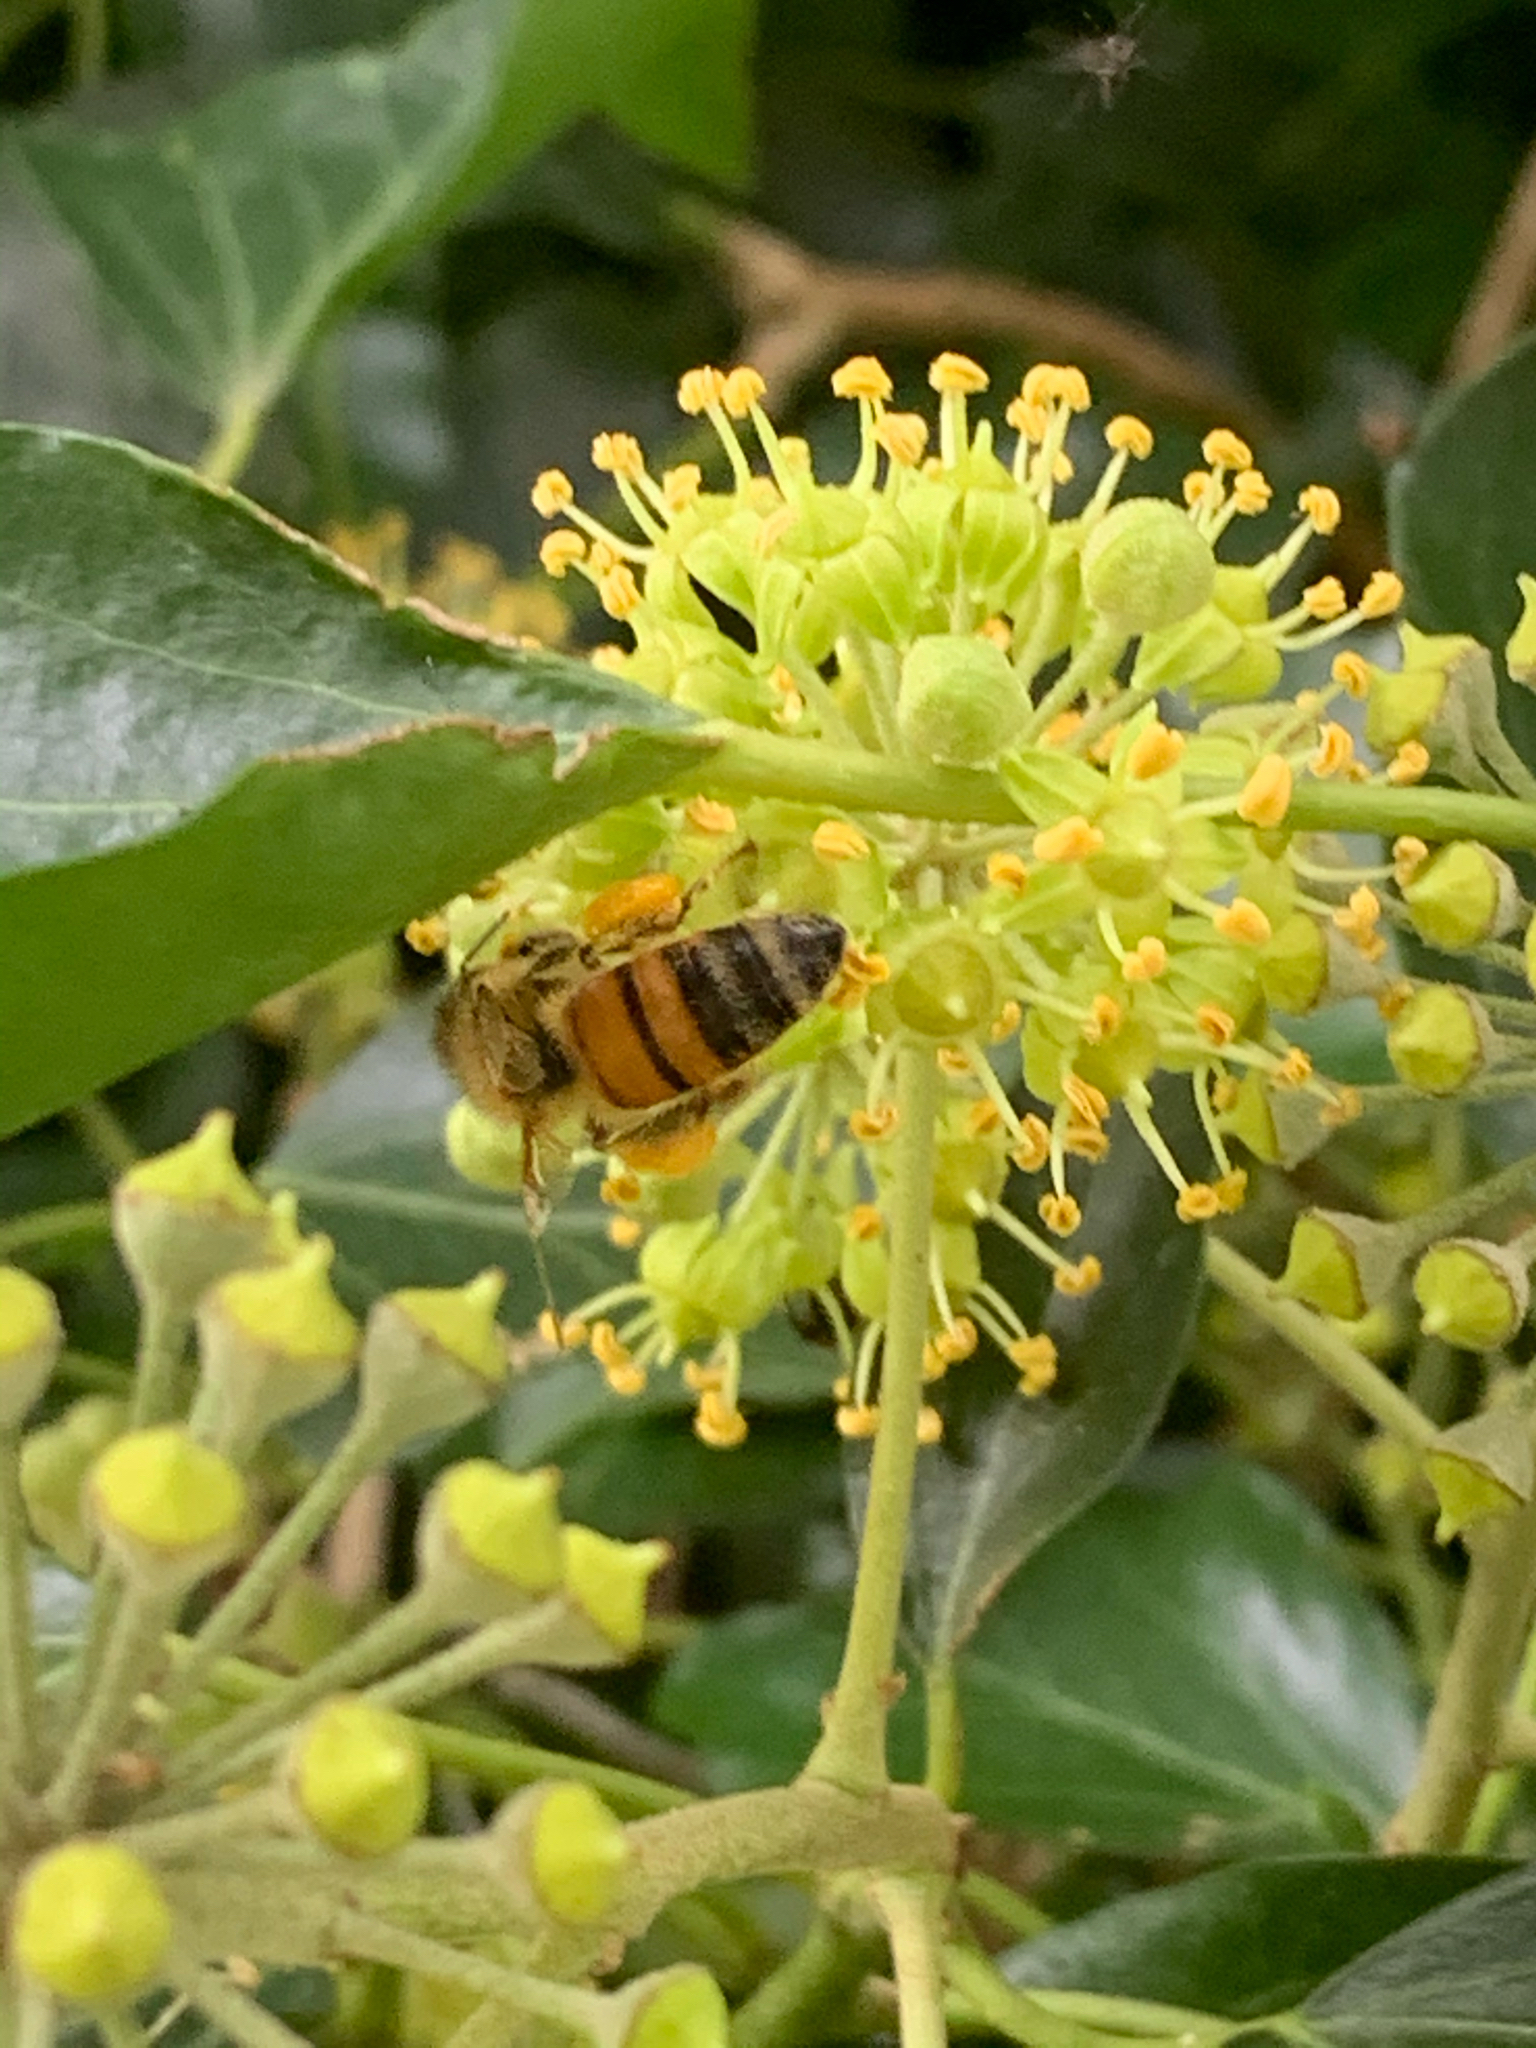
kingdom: Animalia
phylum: Arthropoda
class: Insecta
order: Hymenoptera
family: Apidae
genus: Apis
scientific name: Apis mellifera
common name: Honey bee
